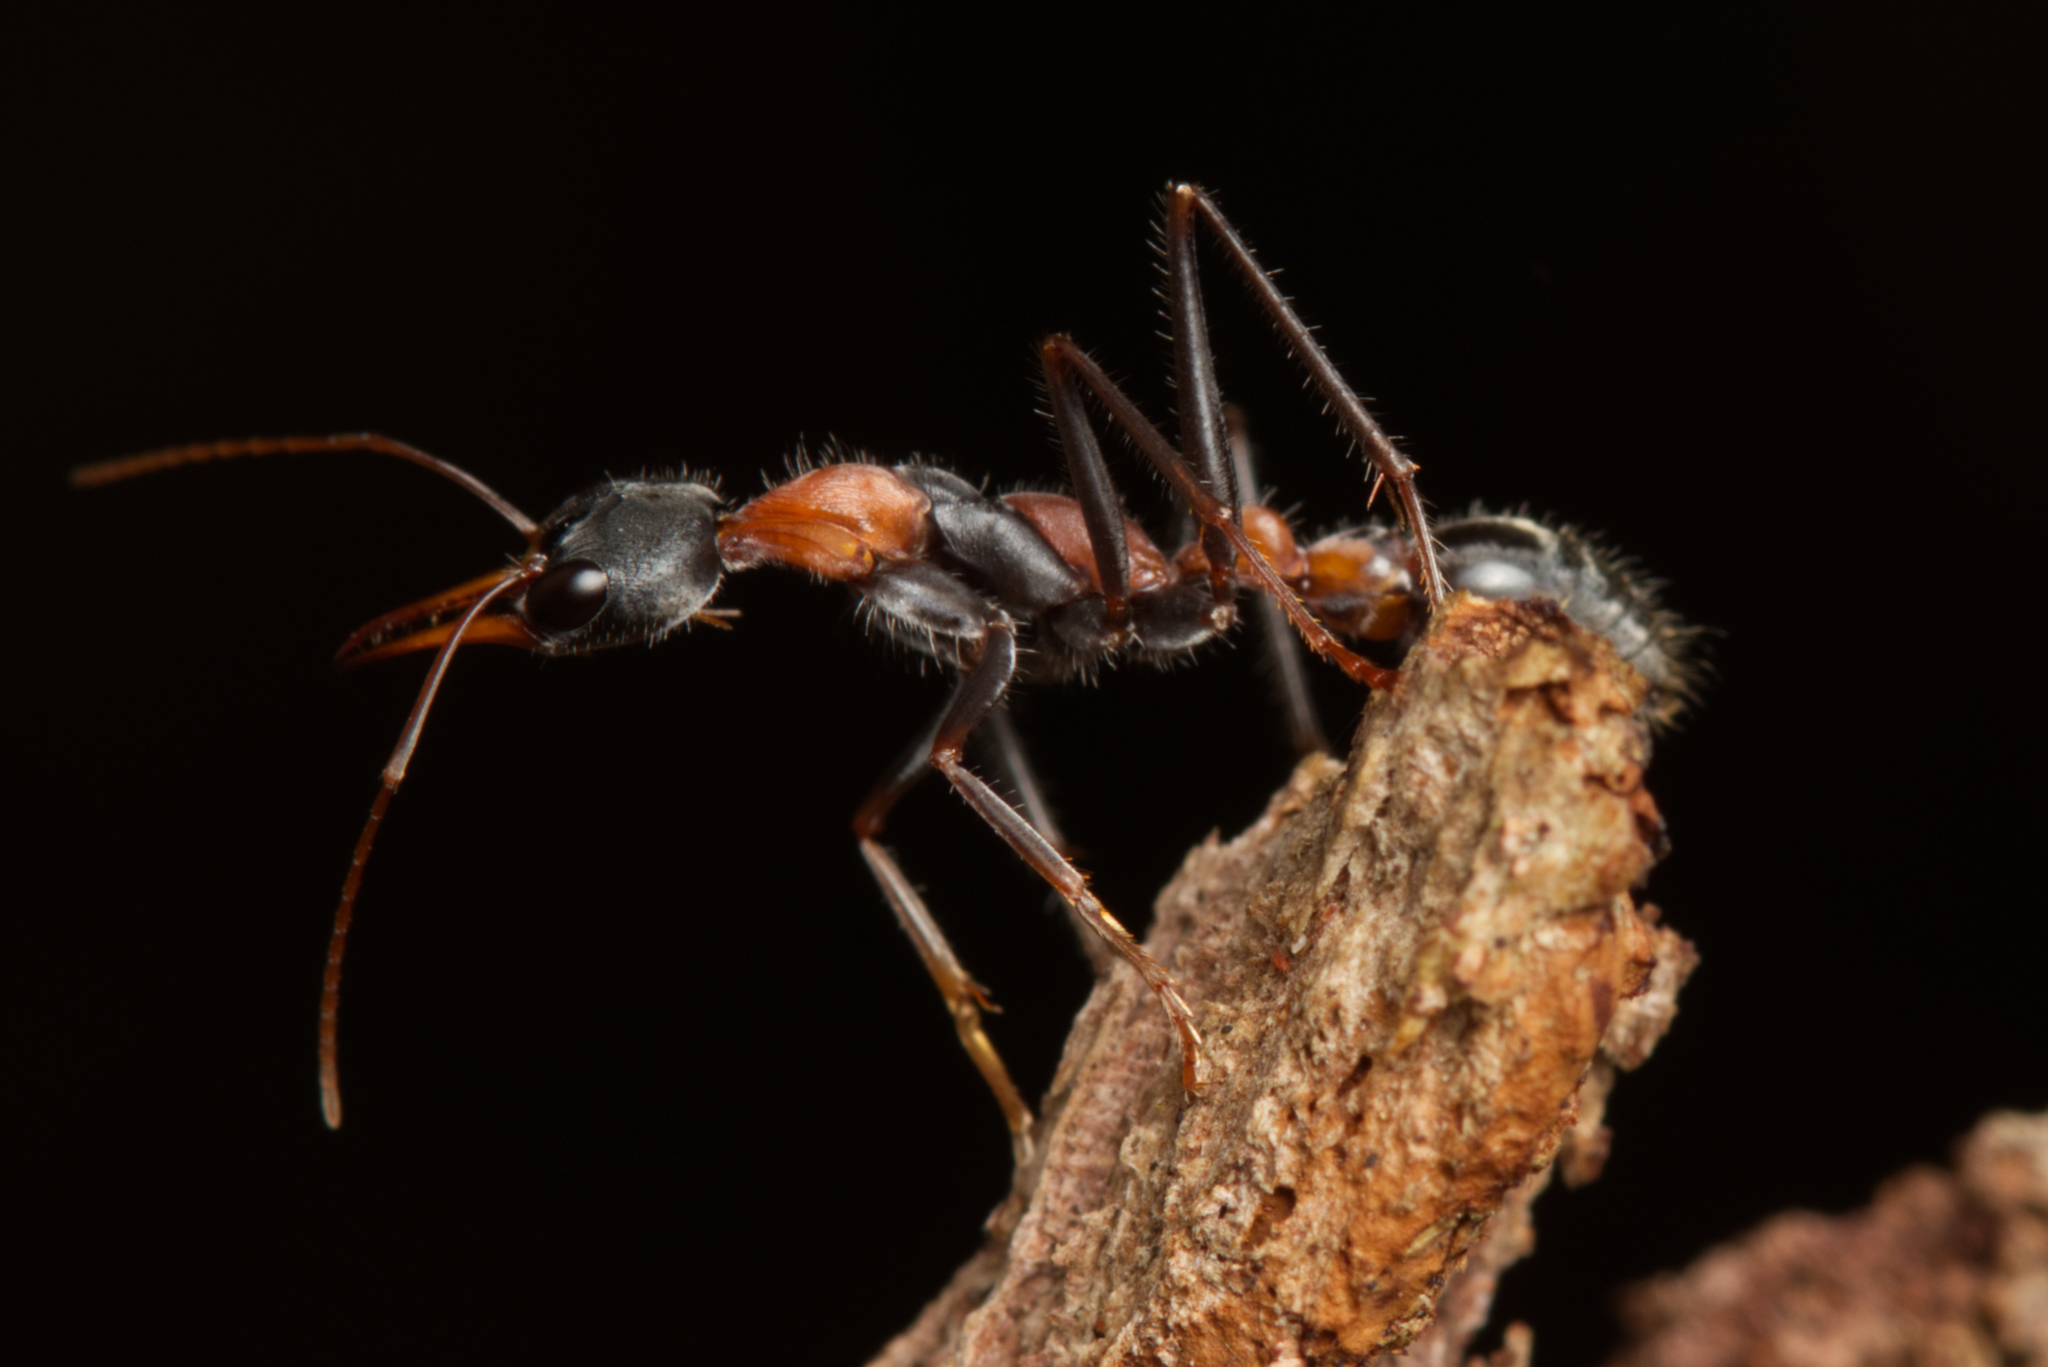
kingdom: Animalia
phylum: Arthropoda
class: Insecta
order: Hymenoptera
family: Formicidae
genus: Myrmecia
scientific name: Myrmecia nigrocincta
